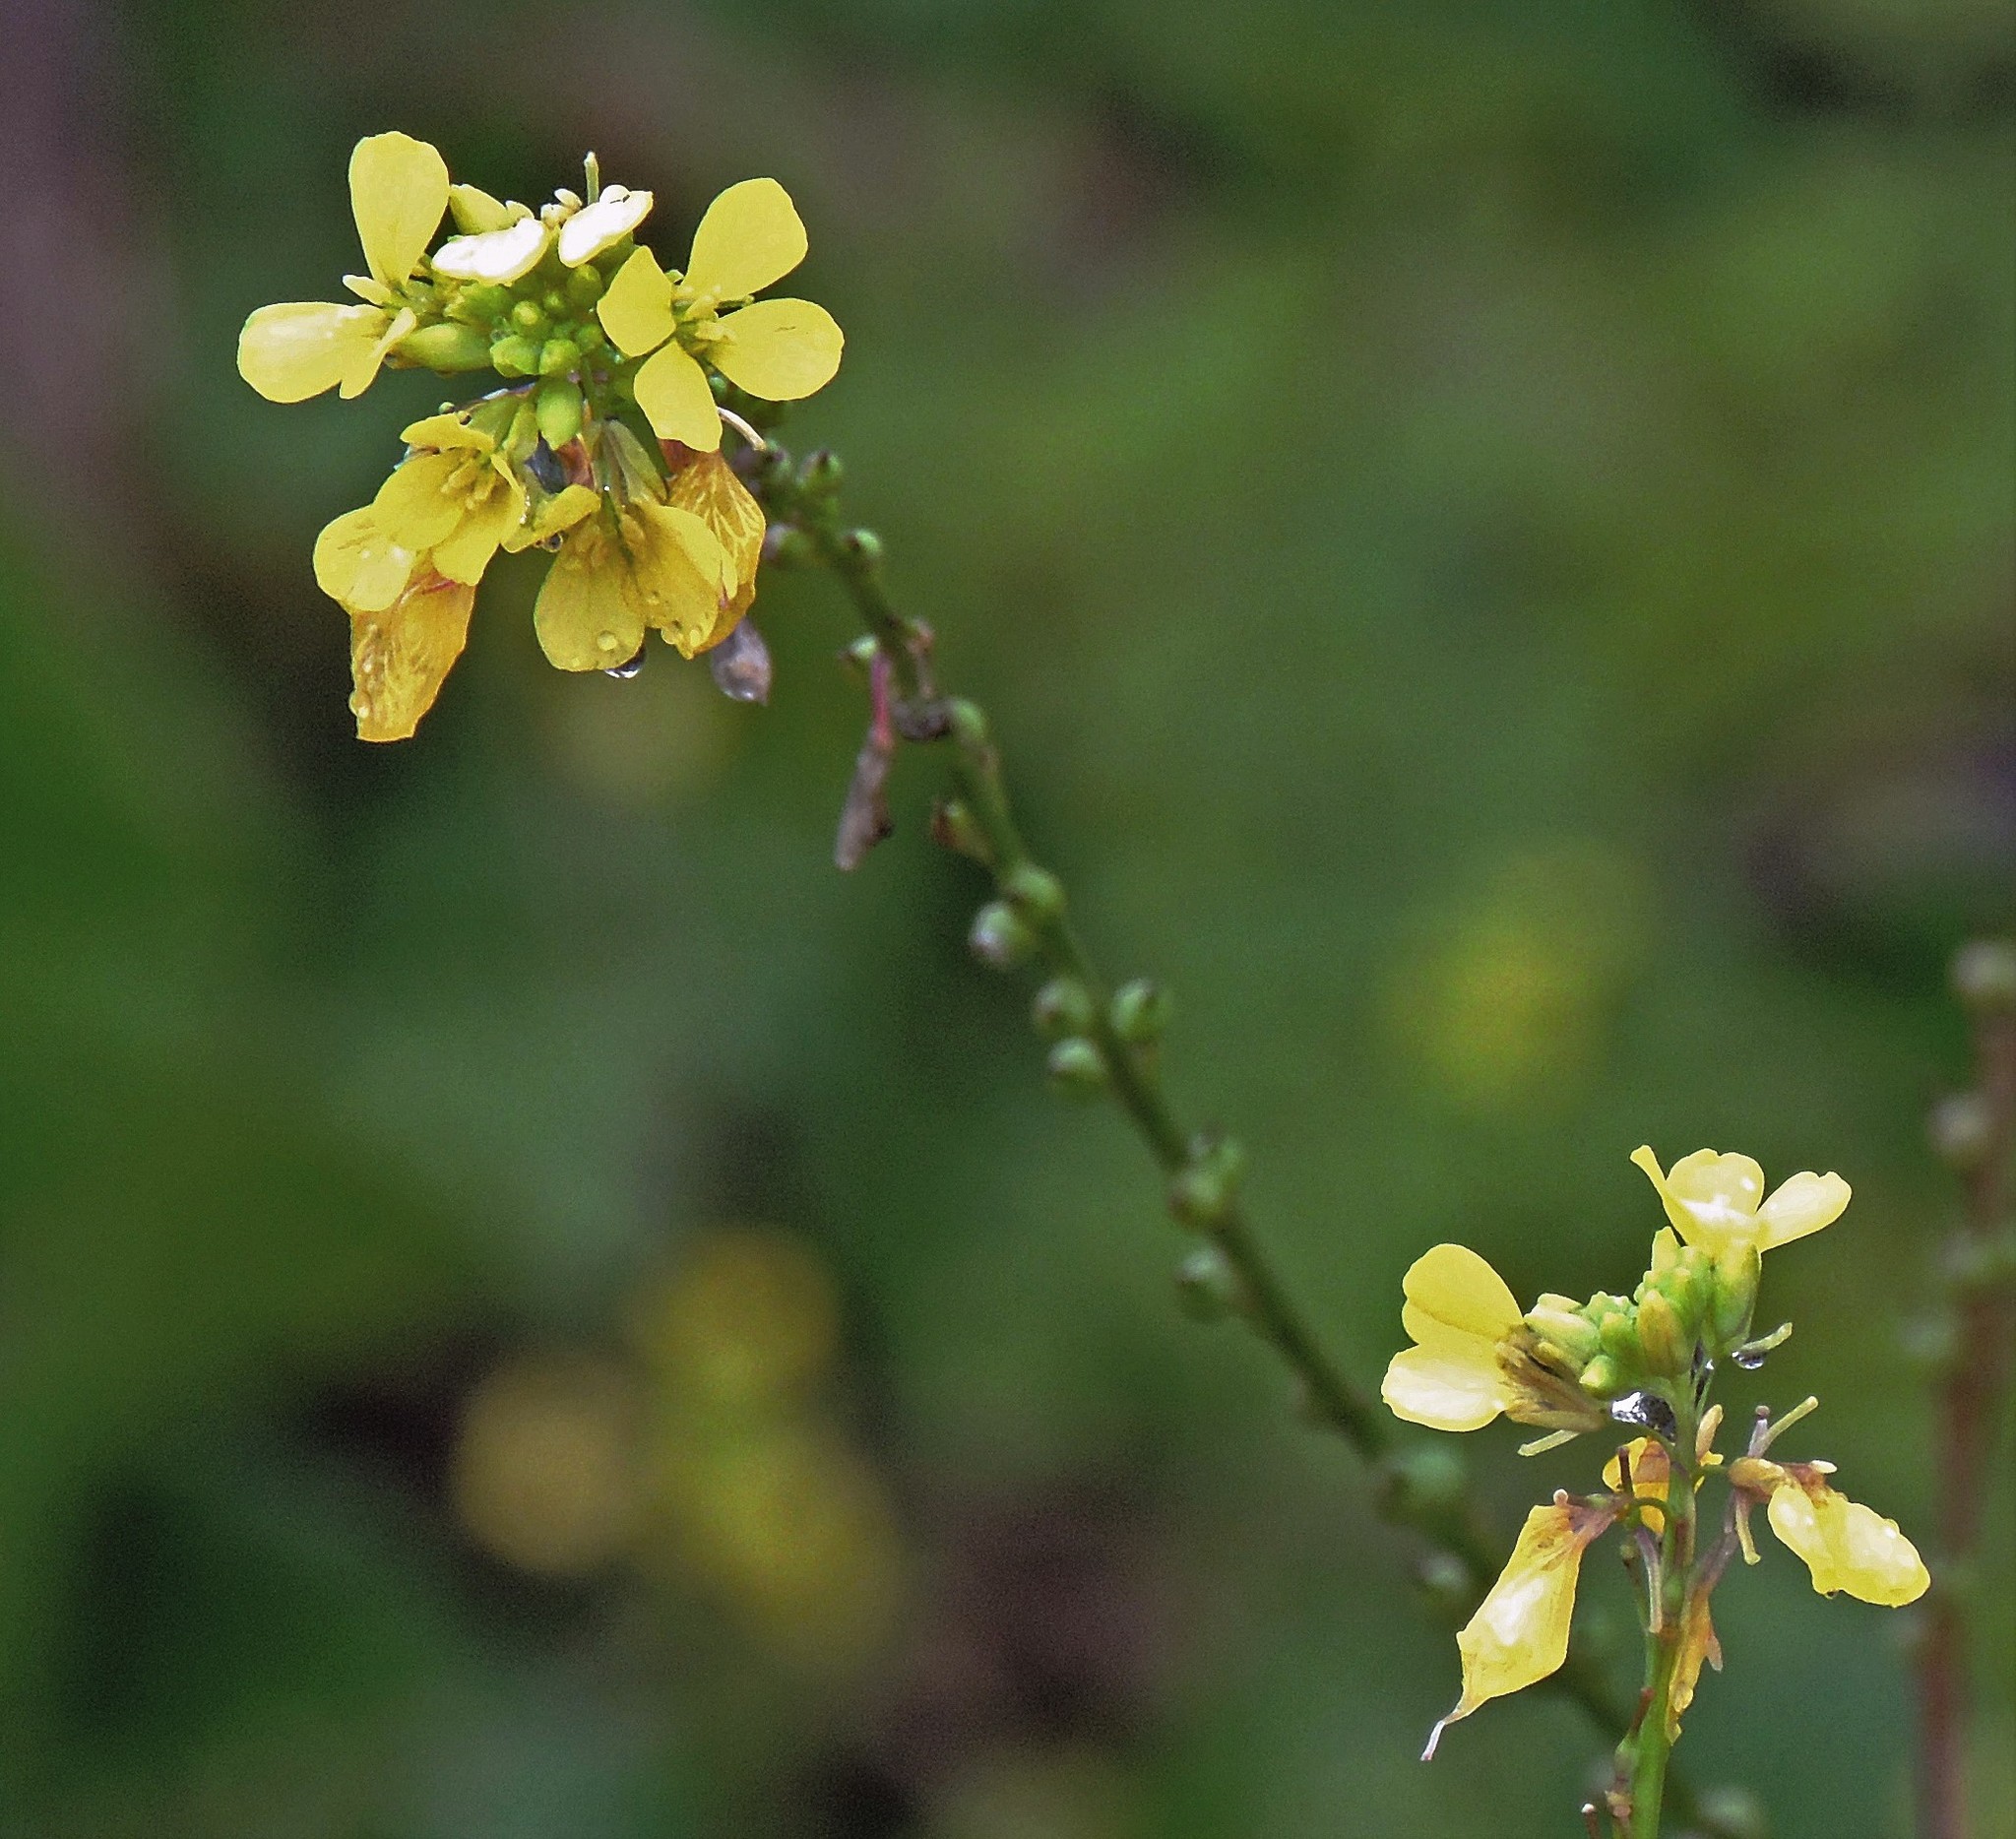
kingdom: Plantae
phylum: Tracheophyta
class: Magnoliopsida
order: Brassicales
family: Brassicaceae
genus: Rapistrum
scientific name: Rapistrum rugosum
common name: Annual bastardcabbage
